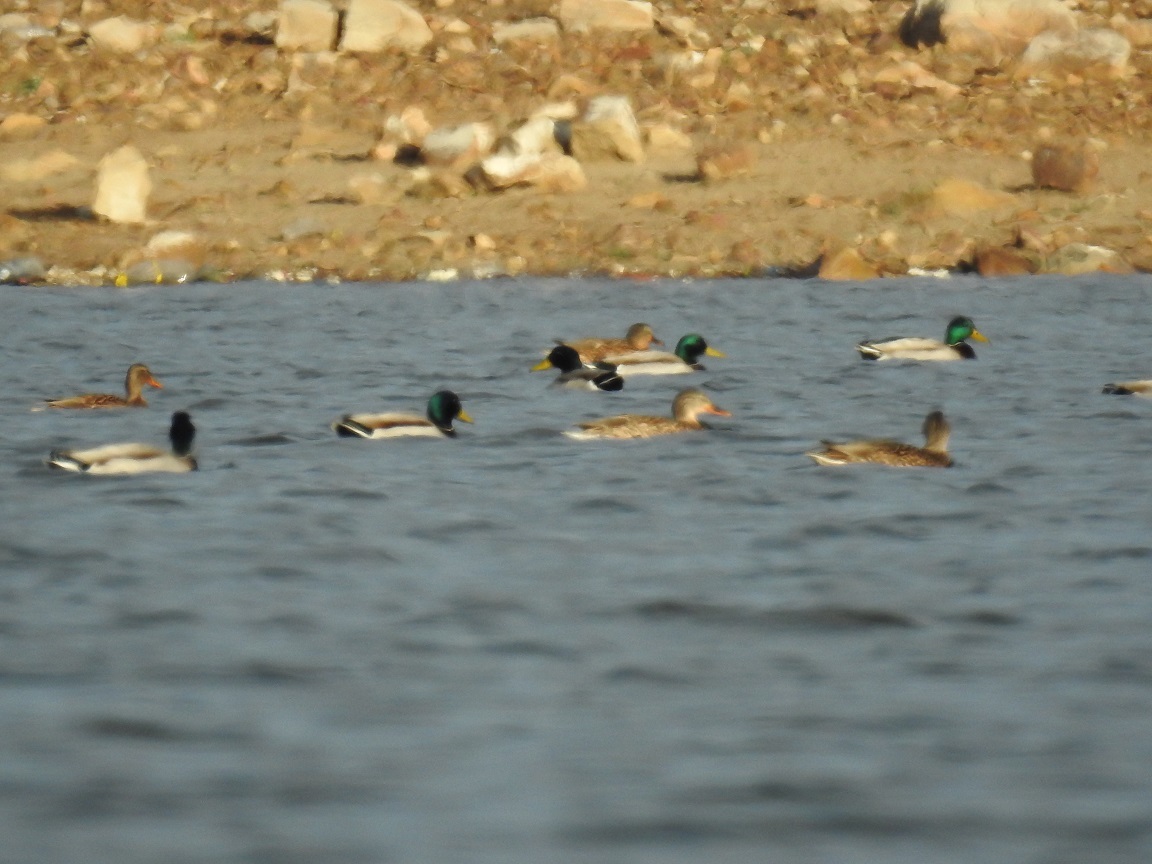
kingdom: Animalia
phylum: Chordata
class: Aves
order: Anseriformes
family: Anatidae
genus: Anas
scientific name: Anas platyrhynchos
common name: Mallard
